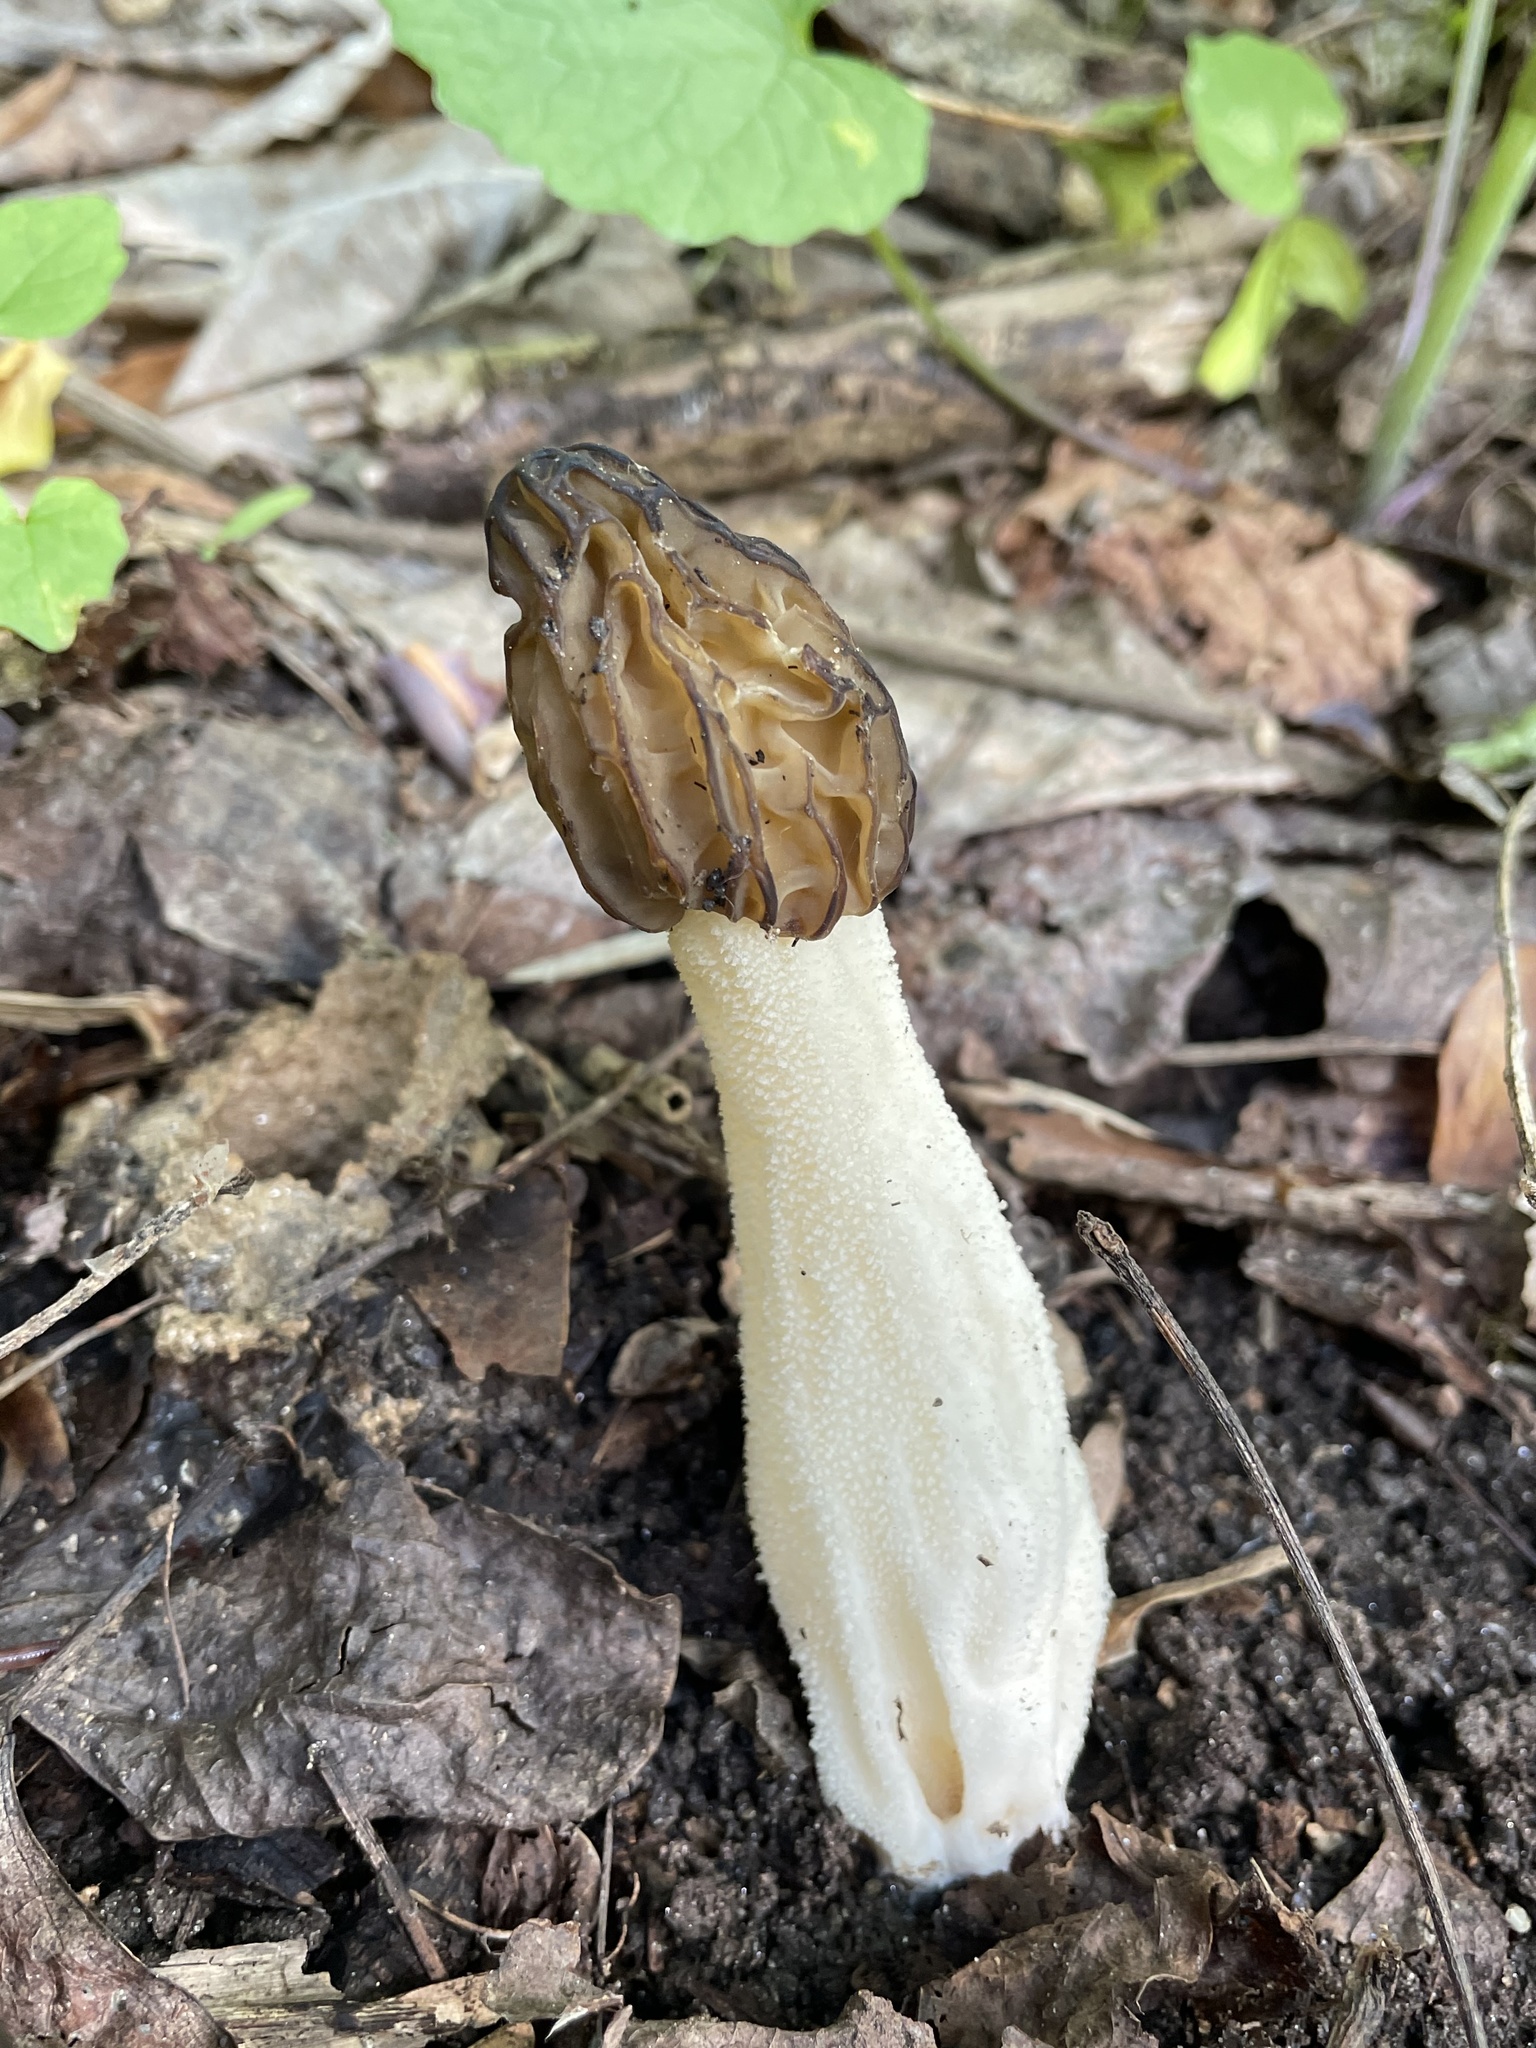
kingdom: Fungi
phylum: Ascomycota
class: Pezizomycetes
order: Pezizales
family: Morchellaceae
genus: Morchella
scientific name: Morchella punctipes
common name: Half-free morel
